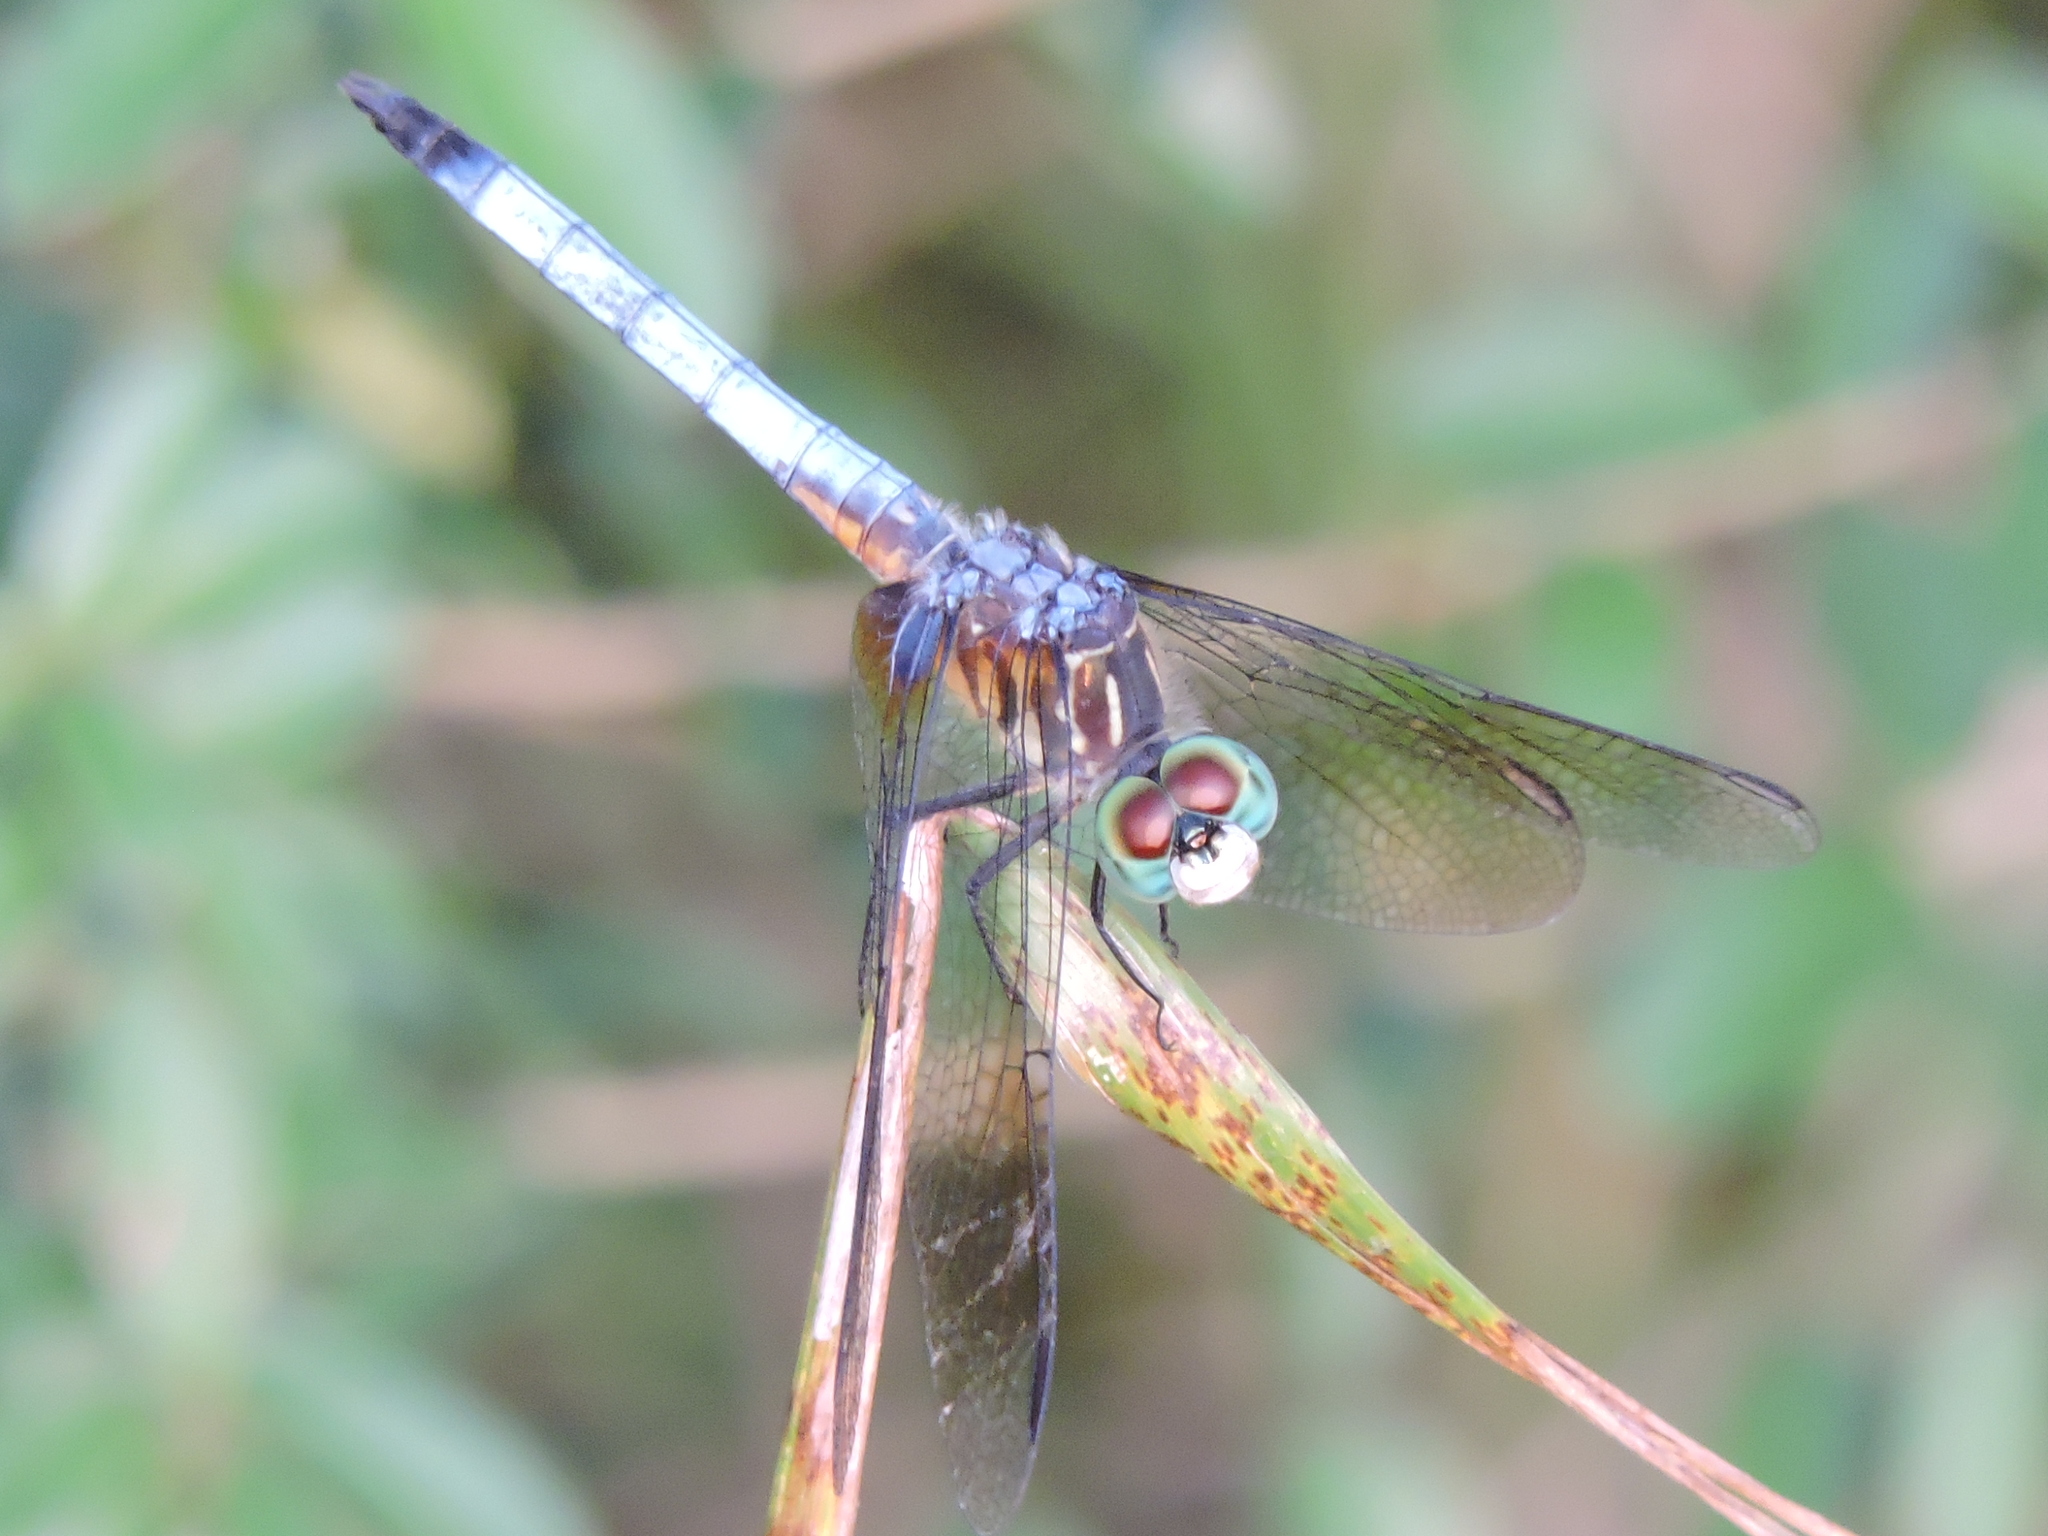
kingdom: Animalia
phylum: Arthropoda
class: Insecta
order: Odonata
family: Libellulidae
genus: Pachydiplax
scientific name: Pachydiplax longipennis
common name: Blue dasher
